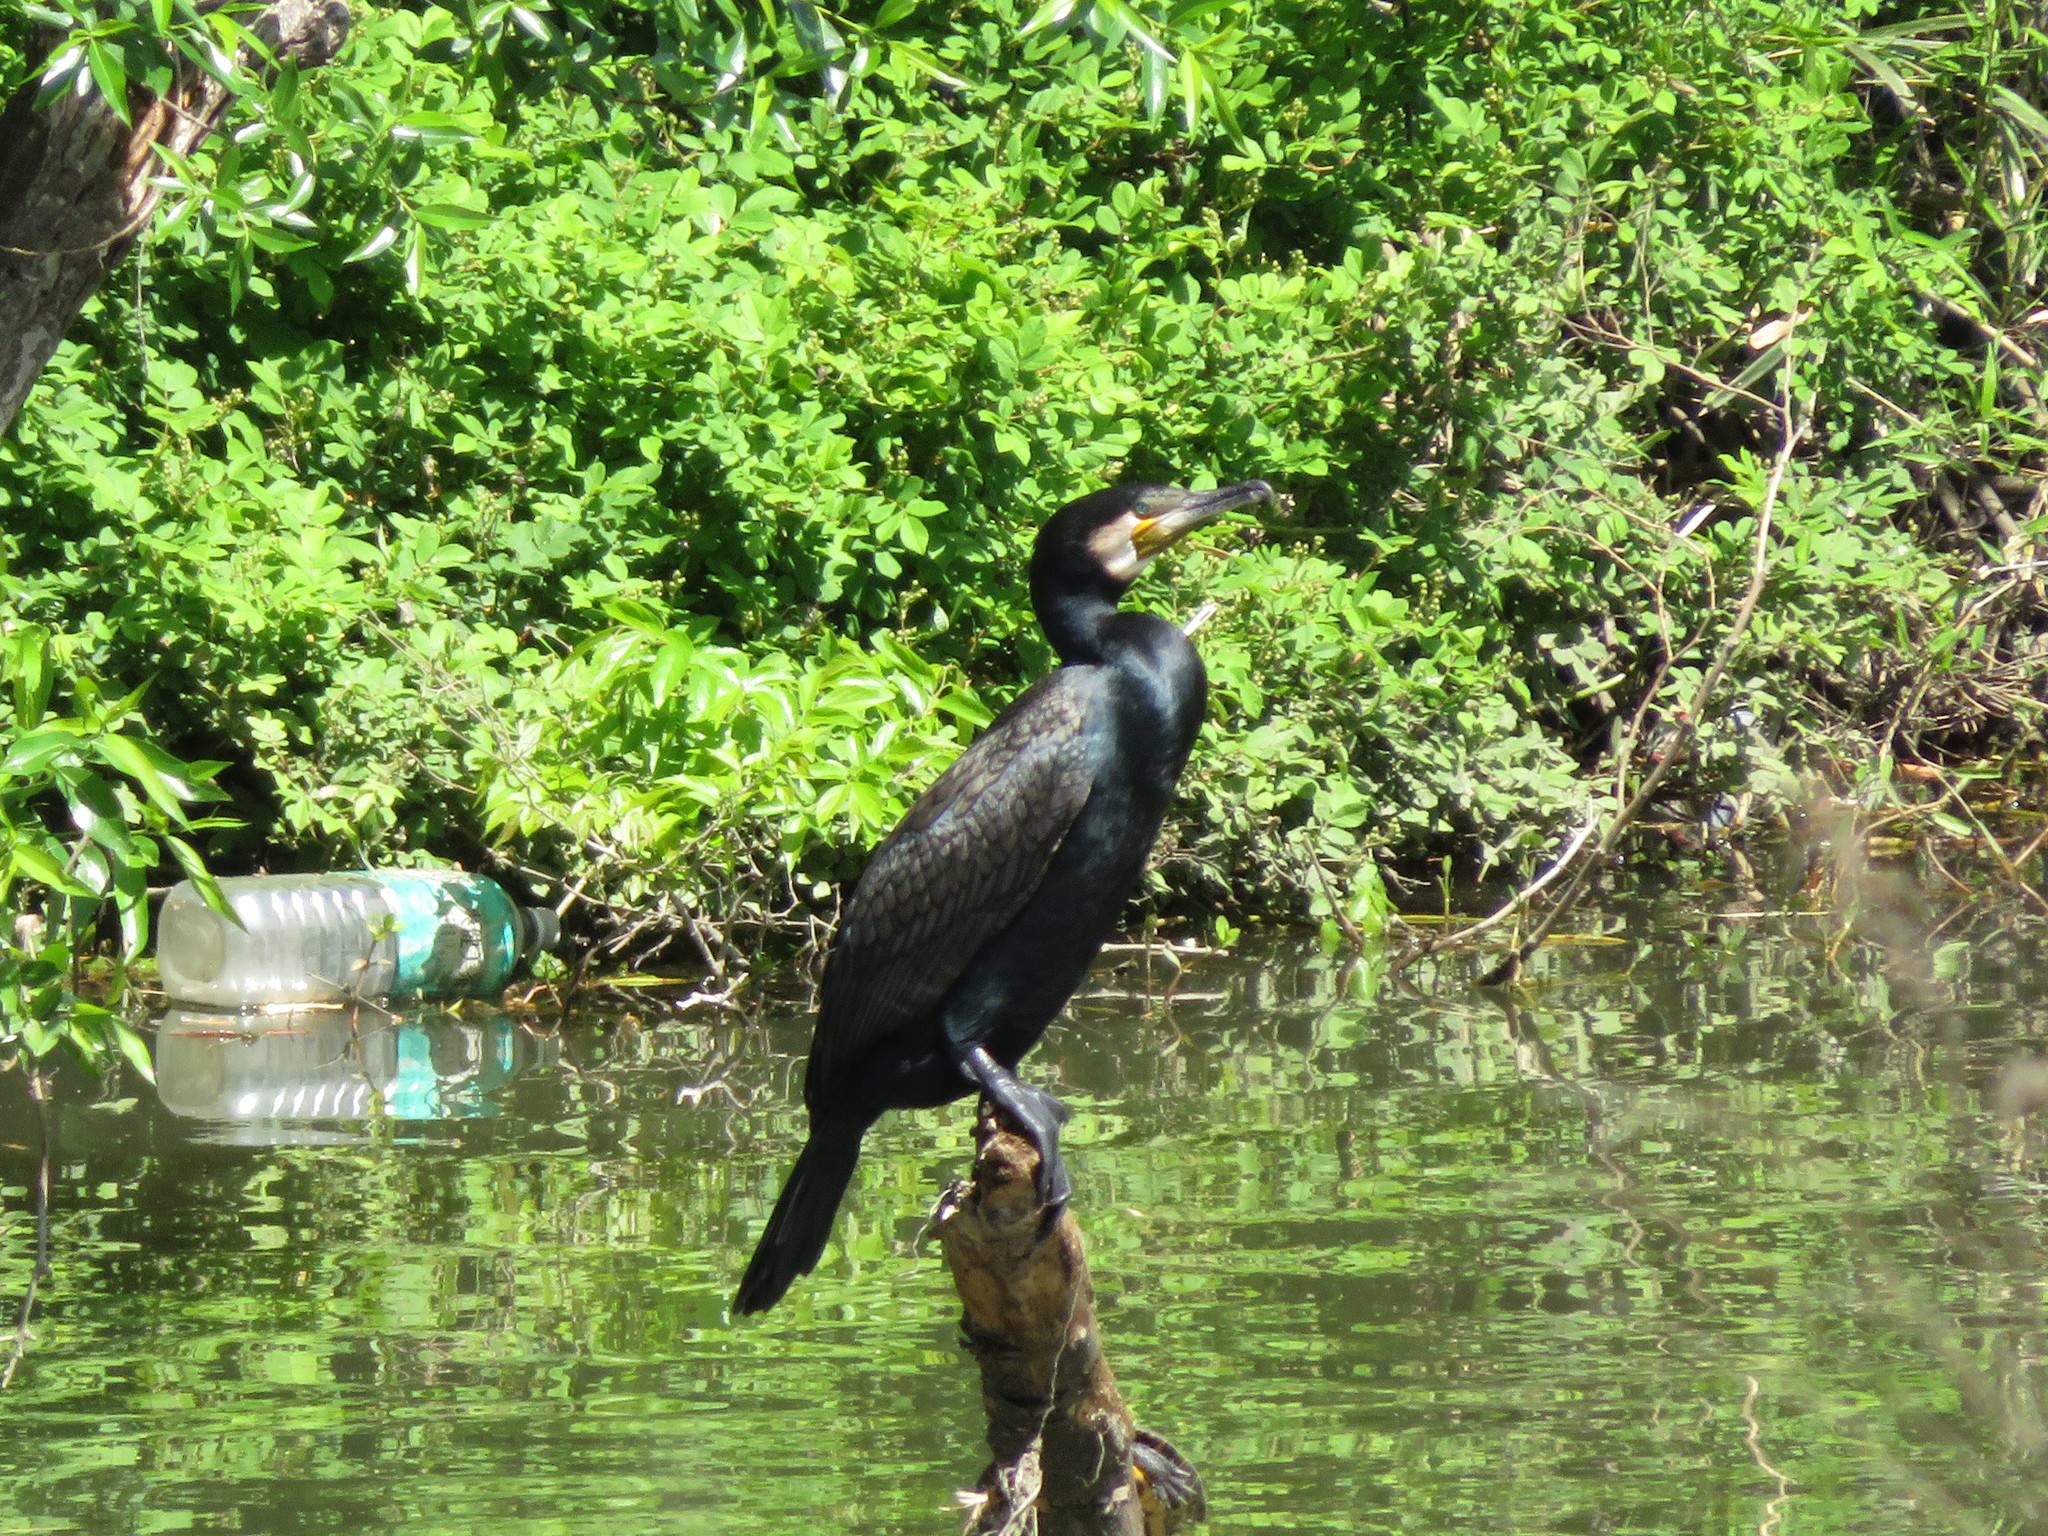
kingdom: Animalia
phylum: Chordata
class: Aves
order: Suliformes
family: Phalacrocoracidae
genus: Phalacrocorax
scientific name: Phalacrocorax carbo
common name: Great cormorant
